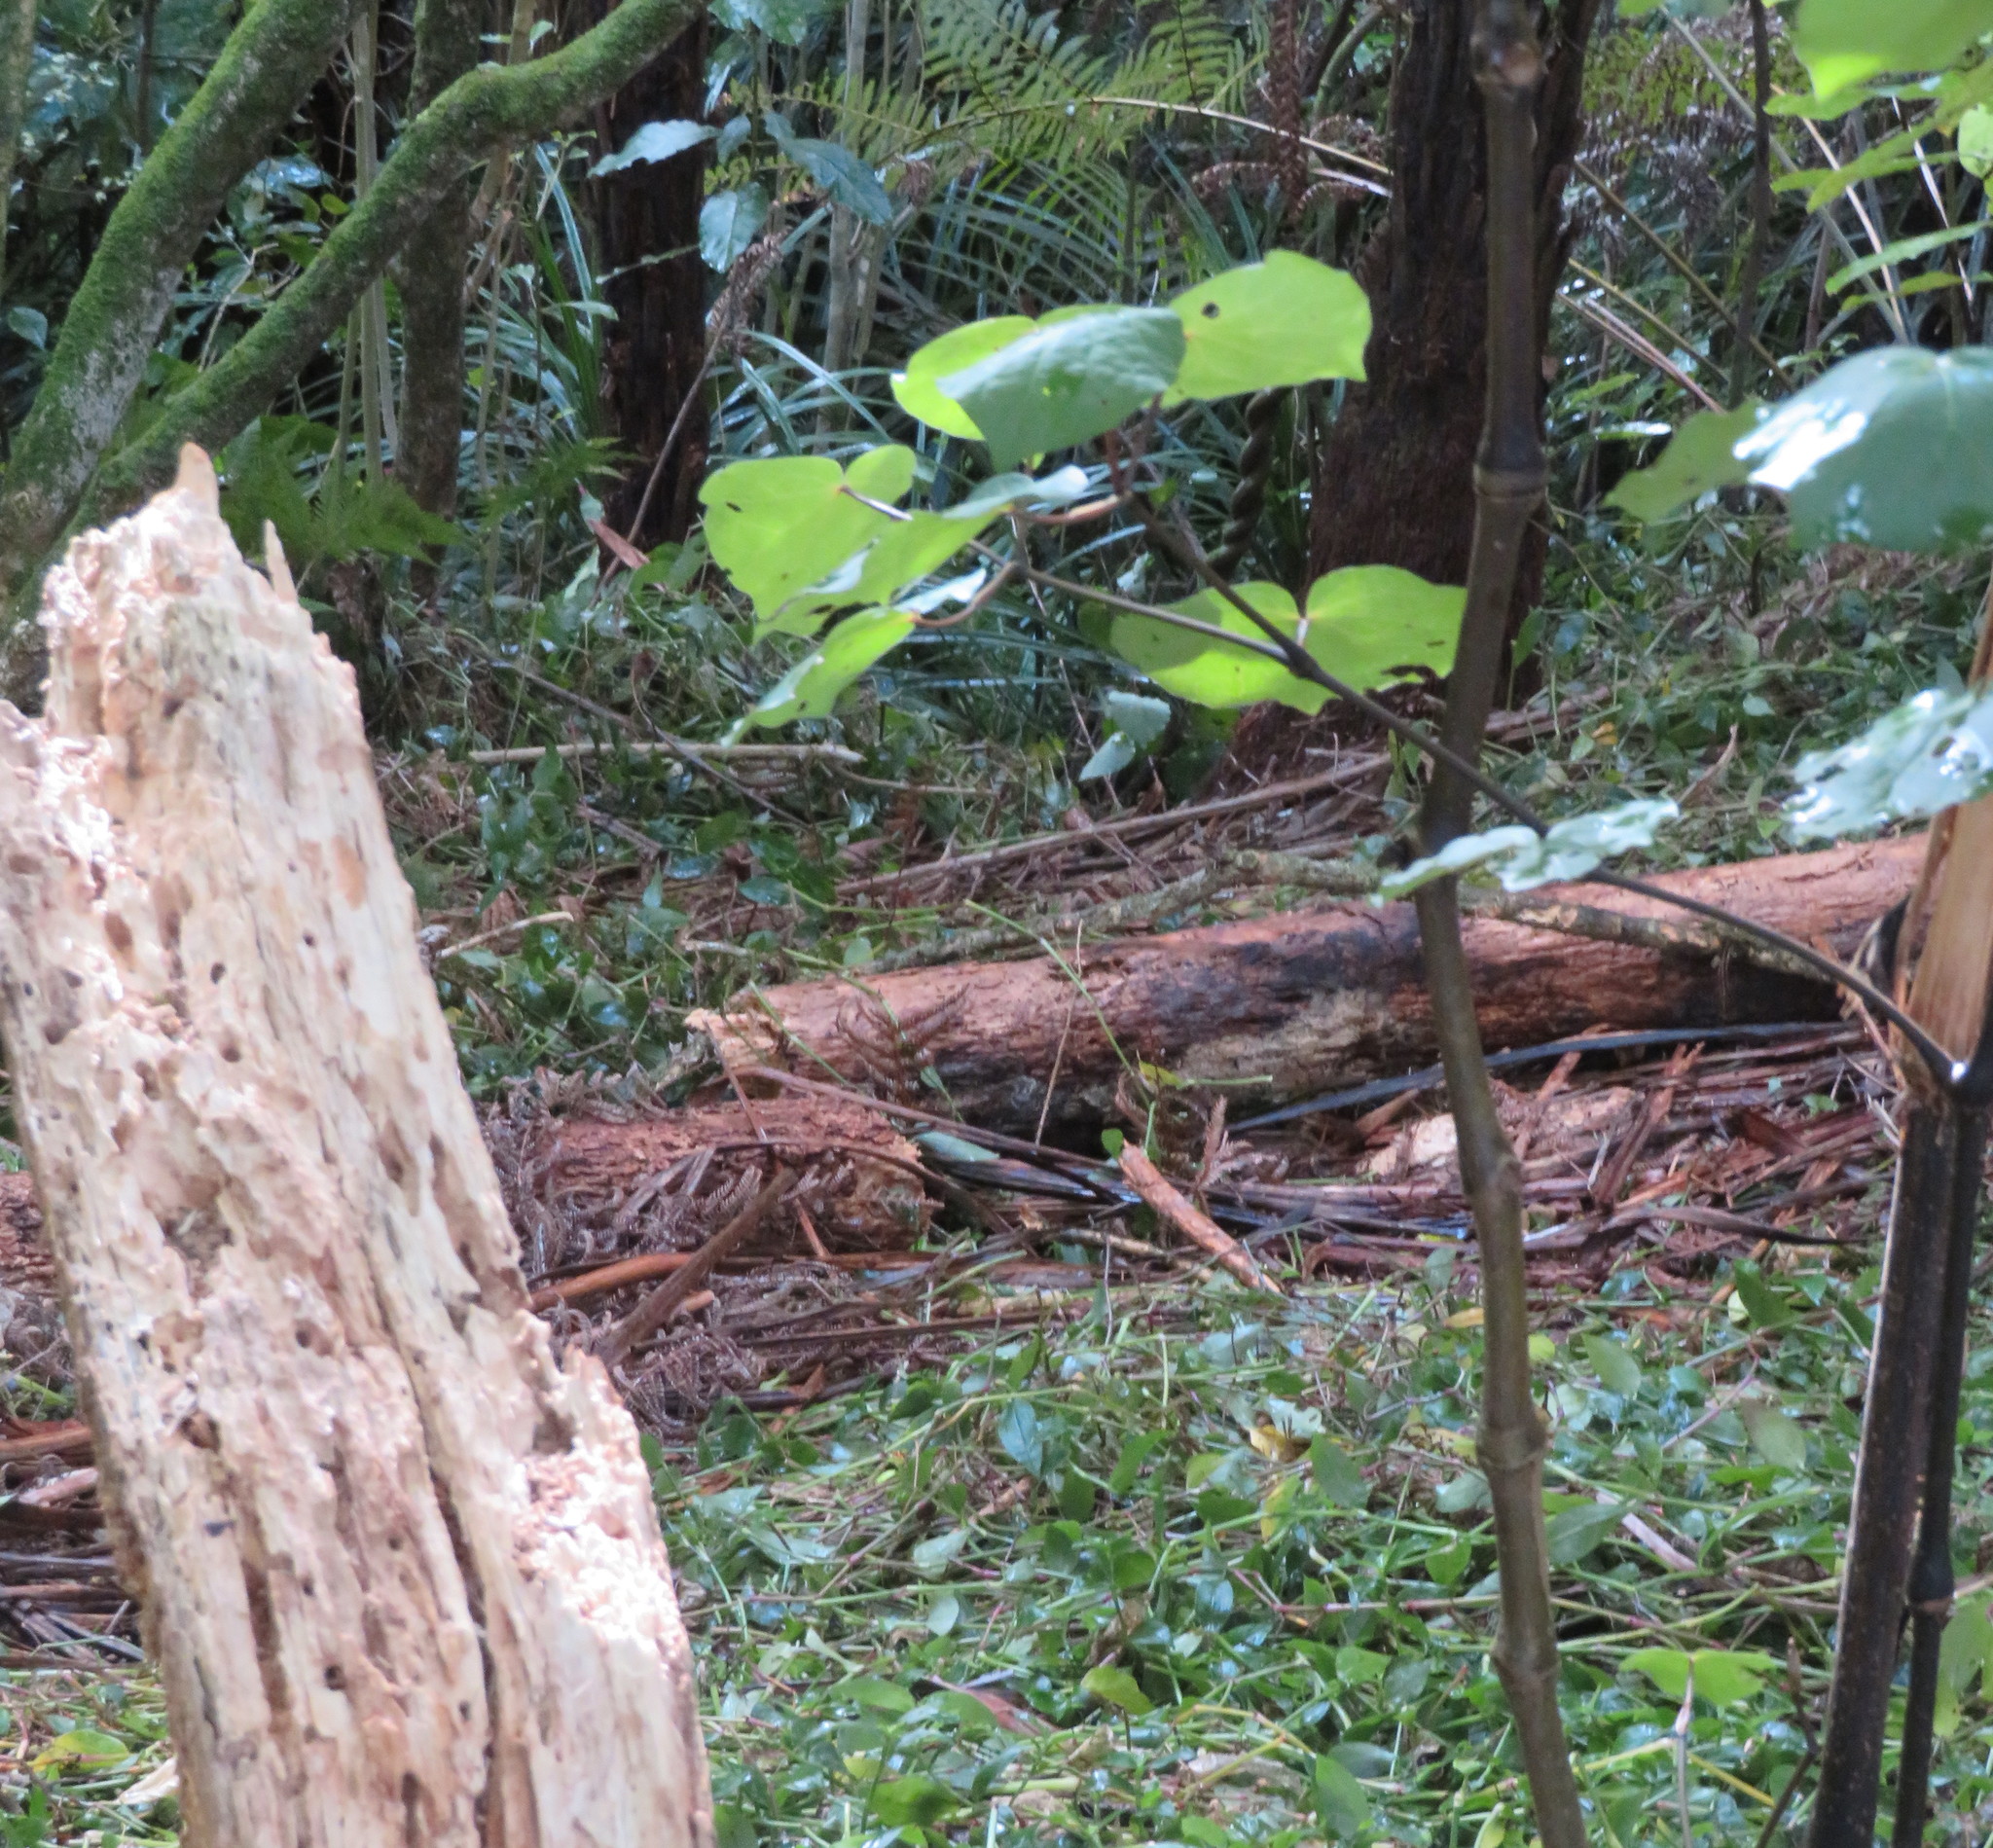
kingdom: Plantae
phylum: Tracheophyta
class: Liliopsida
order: Asparagales
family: Asparagaceae
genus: Cordyline
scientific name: Cordyline australis
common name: Cabbage-palm
